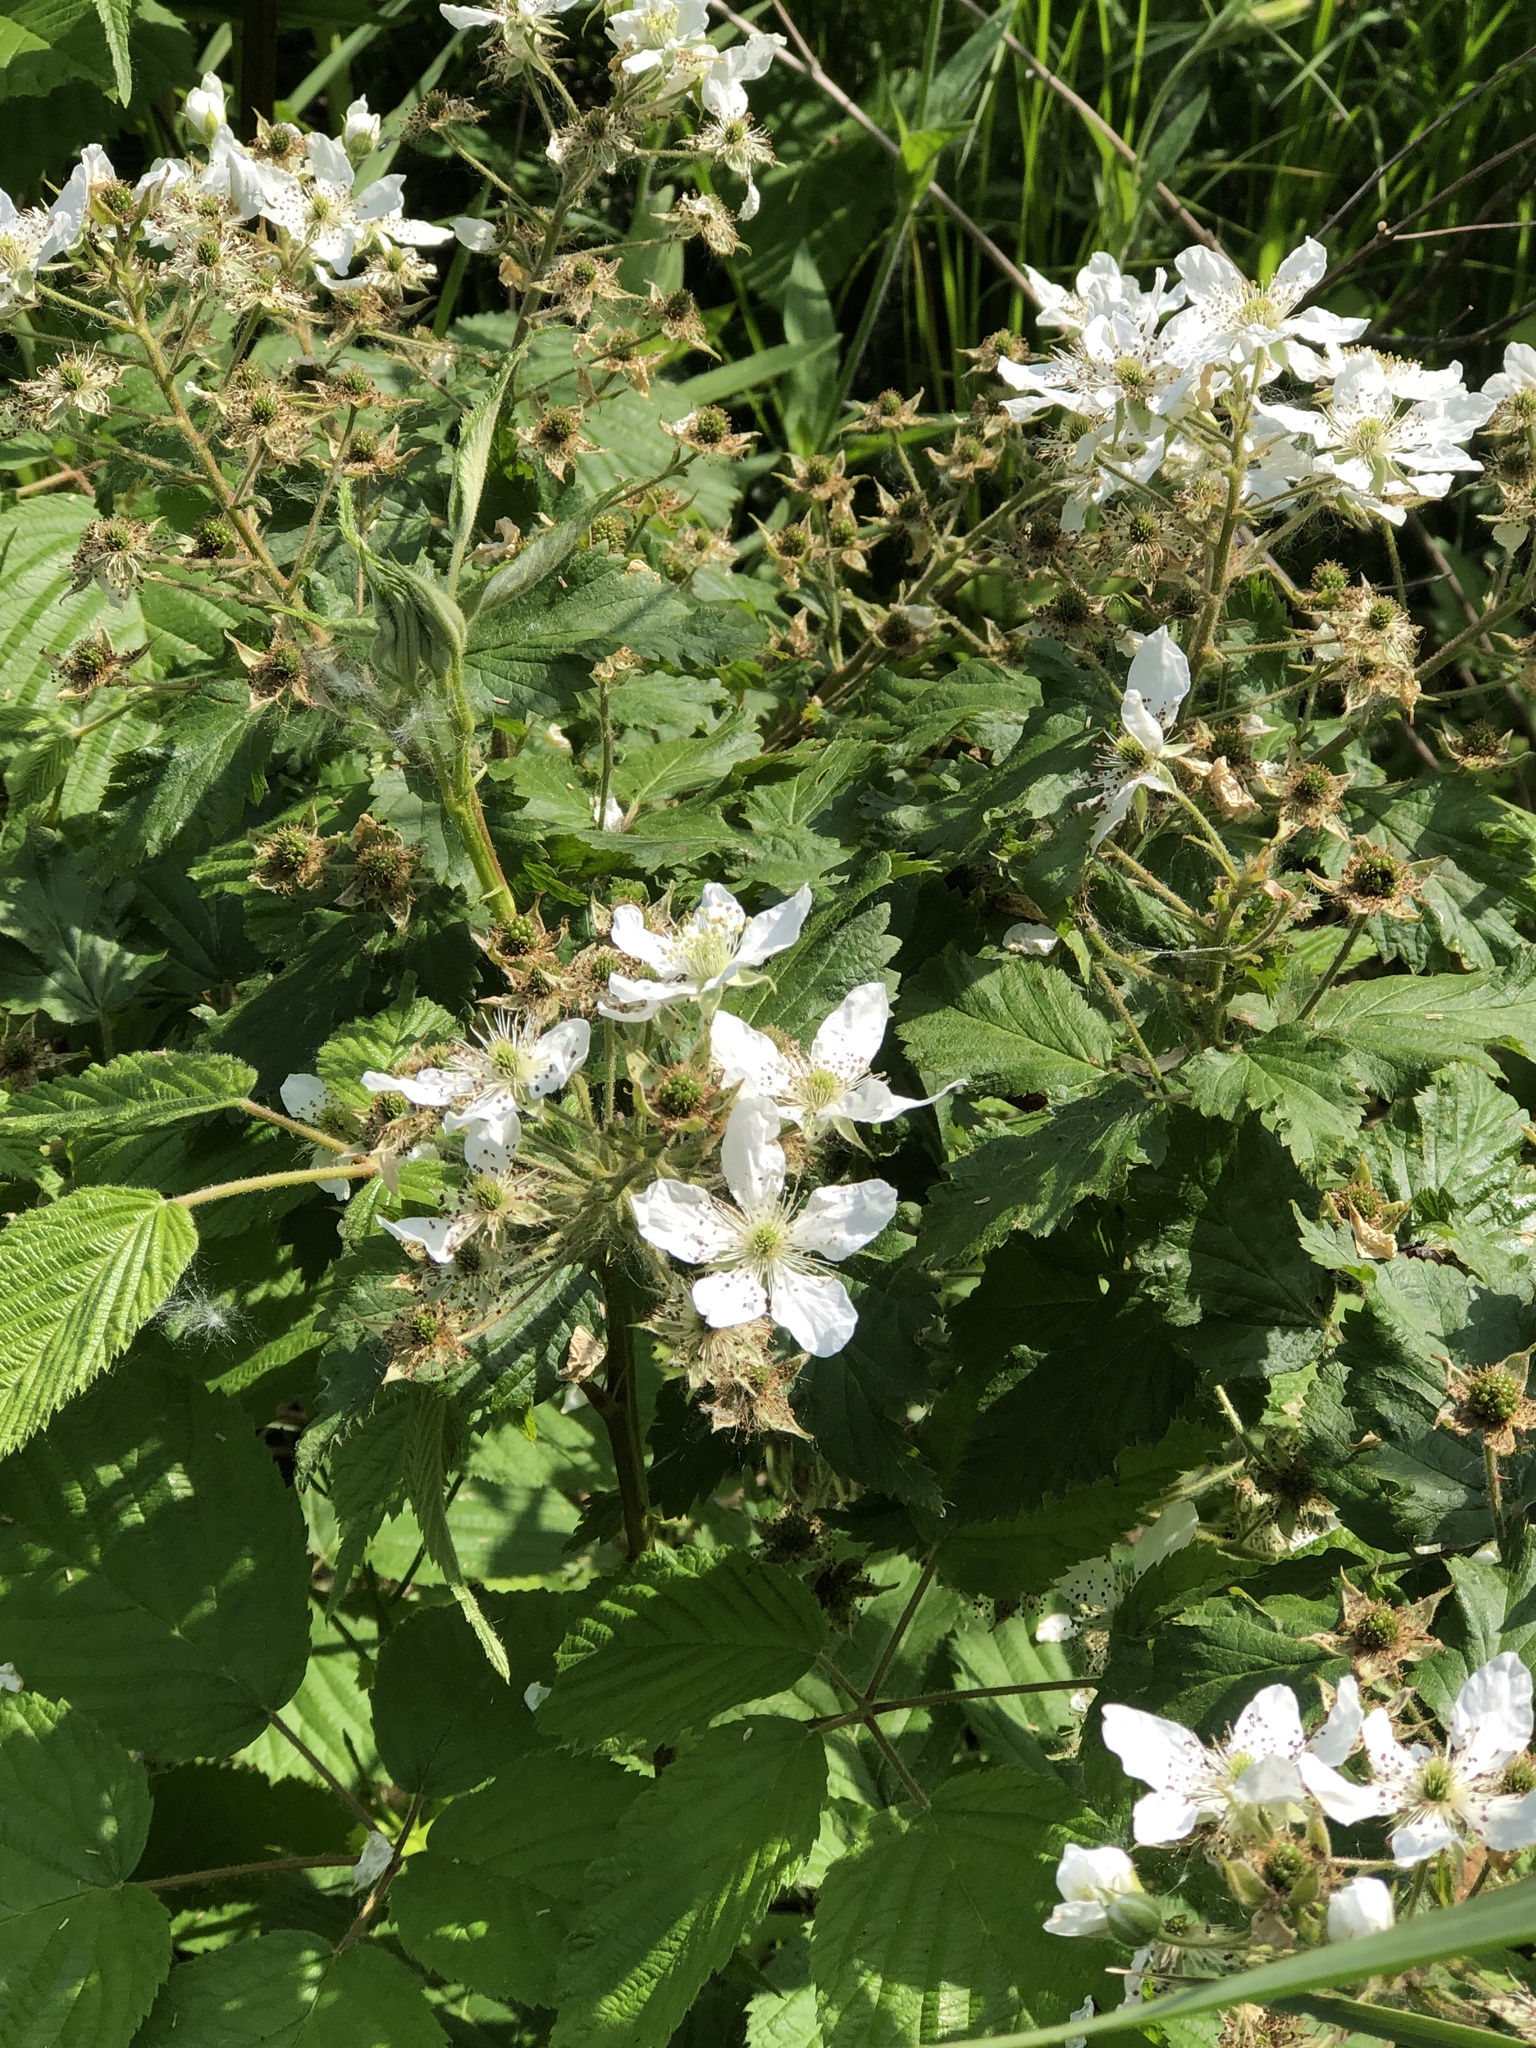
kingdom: Plantae
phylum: Tracheophyta
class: Magnoliopsida
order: Rosales
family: Rosaceae
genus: Rubus
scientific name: Rubus allegheniensis
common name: Allegheny blackberry
